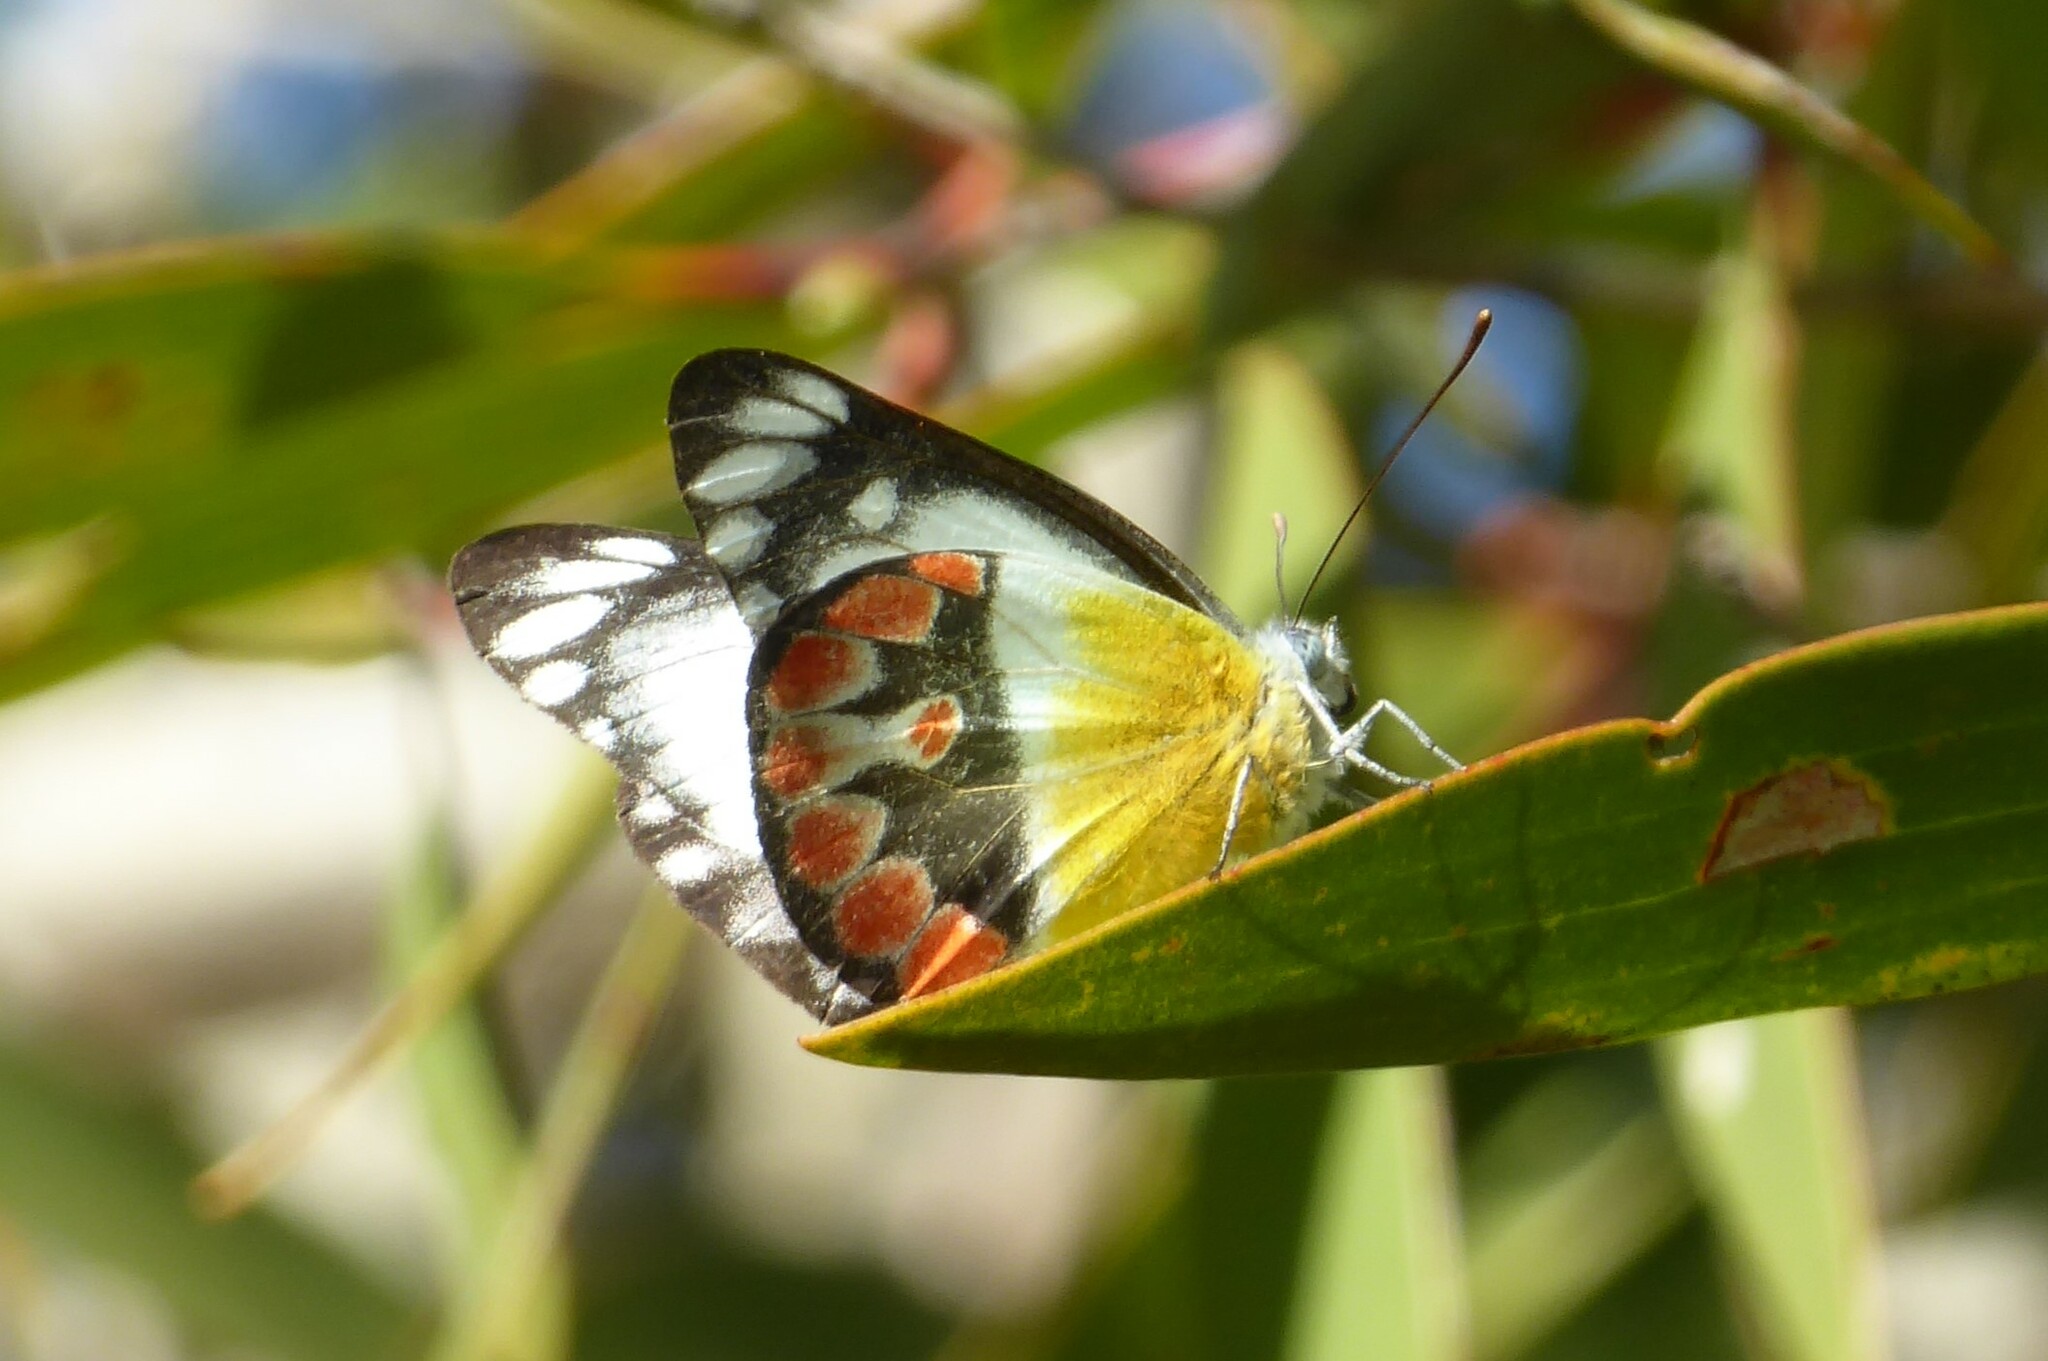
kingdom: Animalia
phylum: Arthropoda
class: Insecta
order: Lepidoptera
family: Pieridae
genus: Delias
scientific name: Delias argenthona
